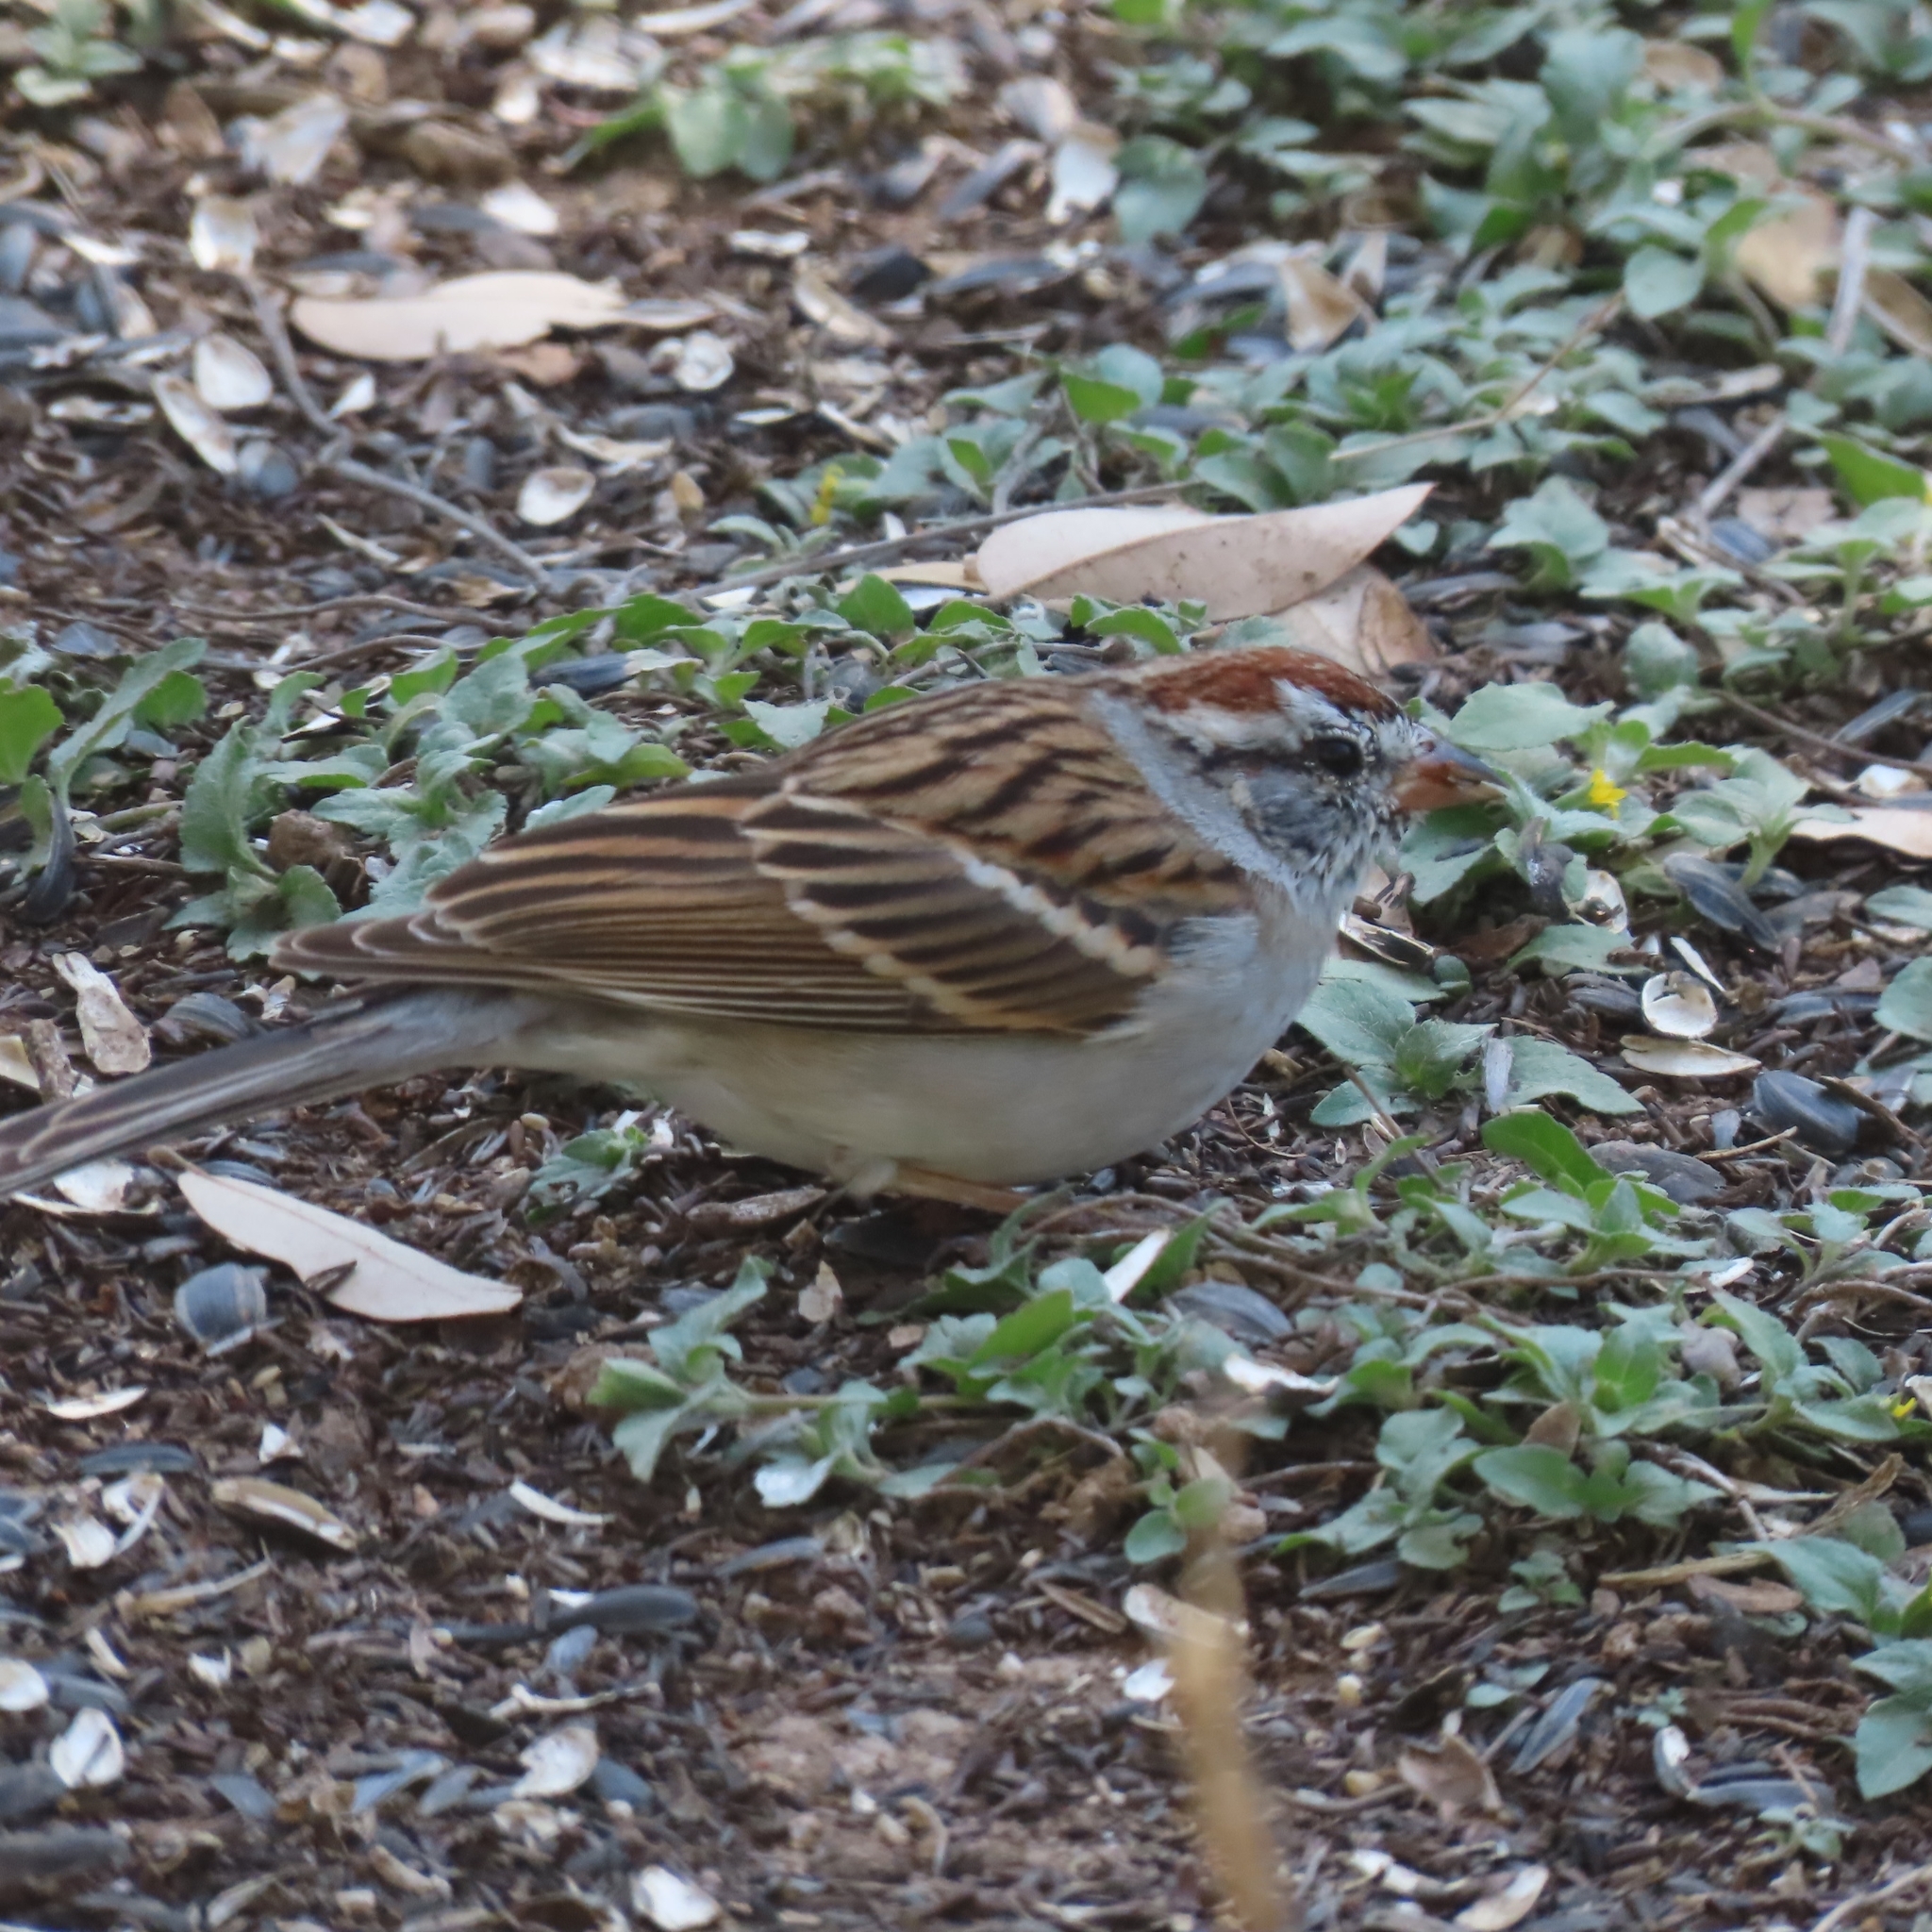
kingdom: Animalia
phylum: Chordata
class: Aves
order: Passeriformes
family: Passerellidae
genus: Spizella
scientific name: Spizella passerina
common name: Chipping sparrow
